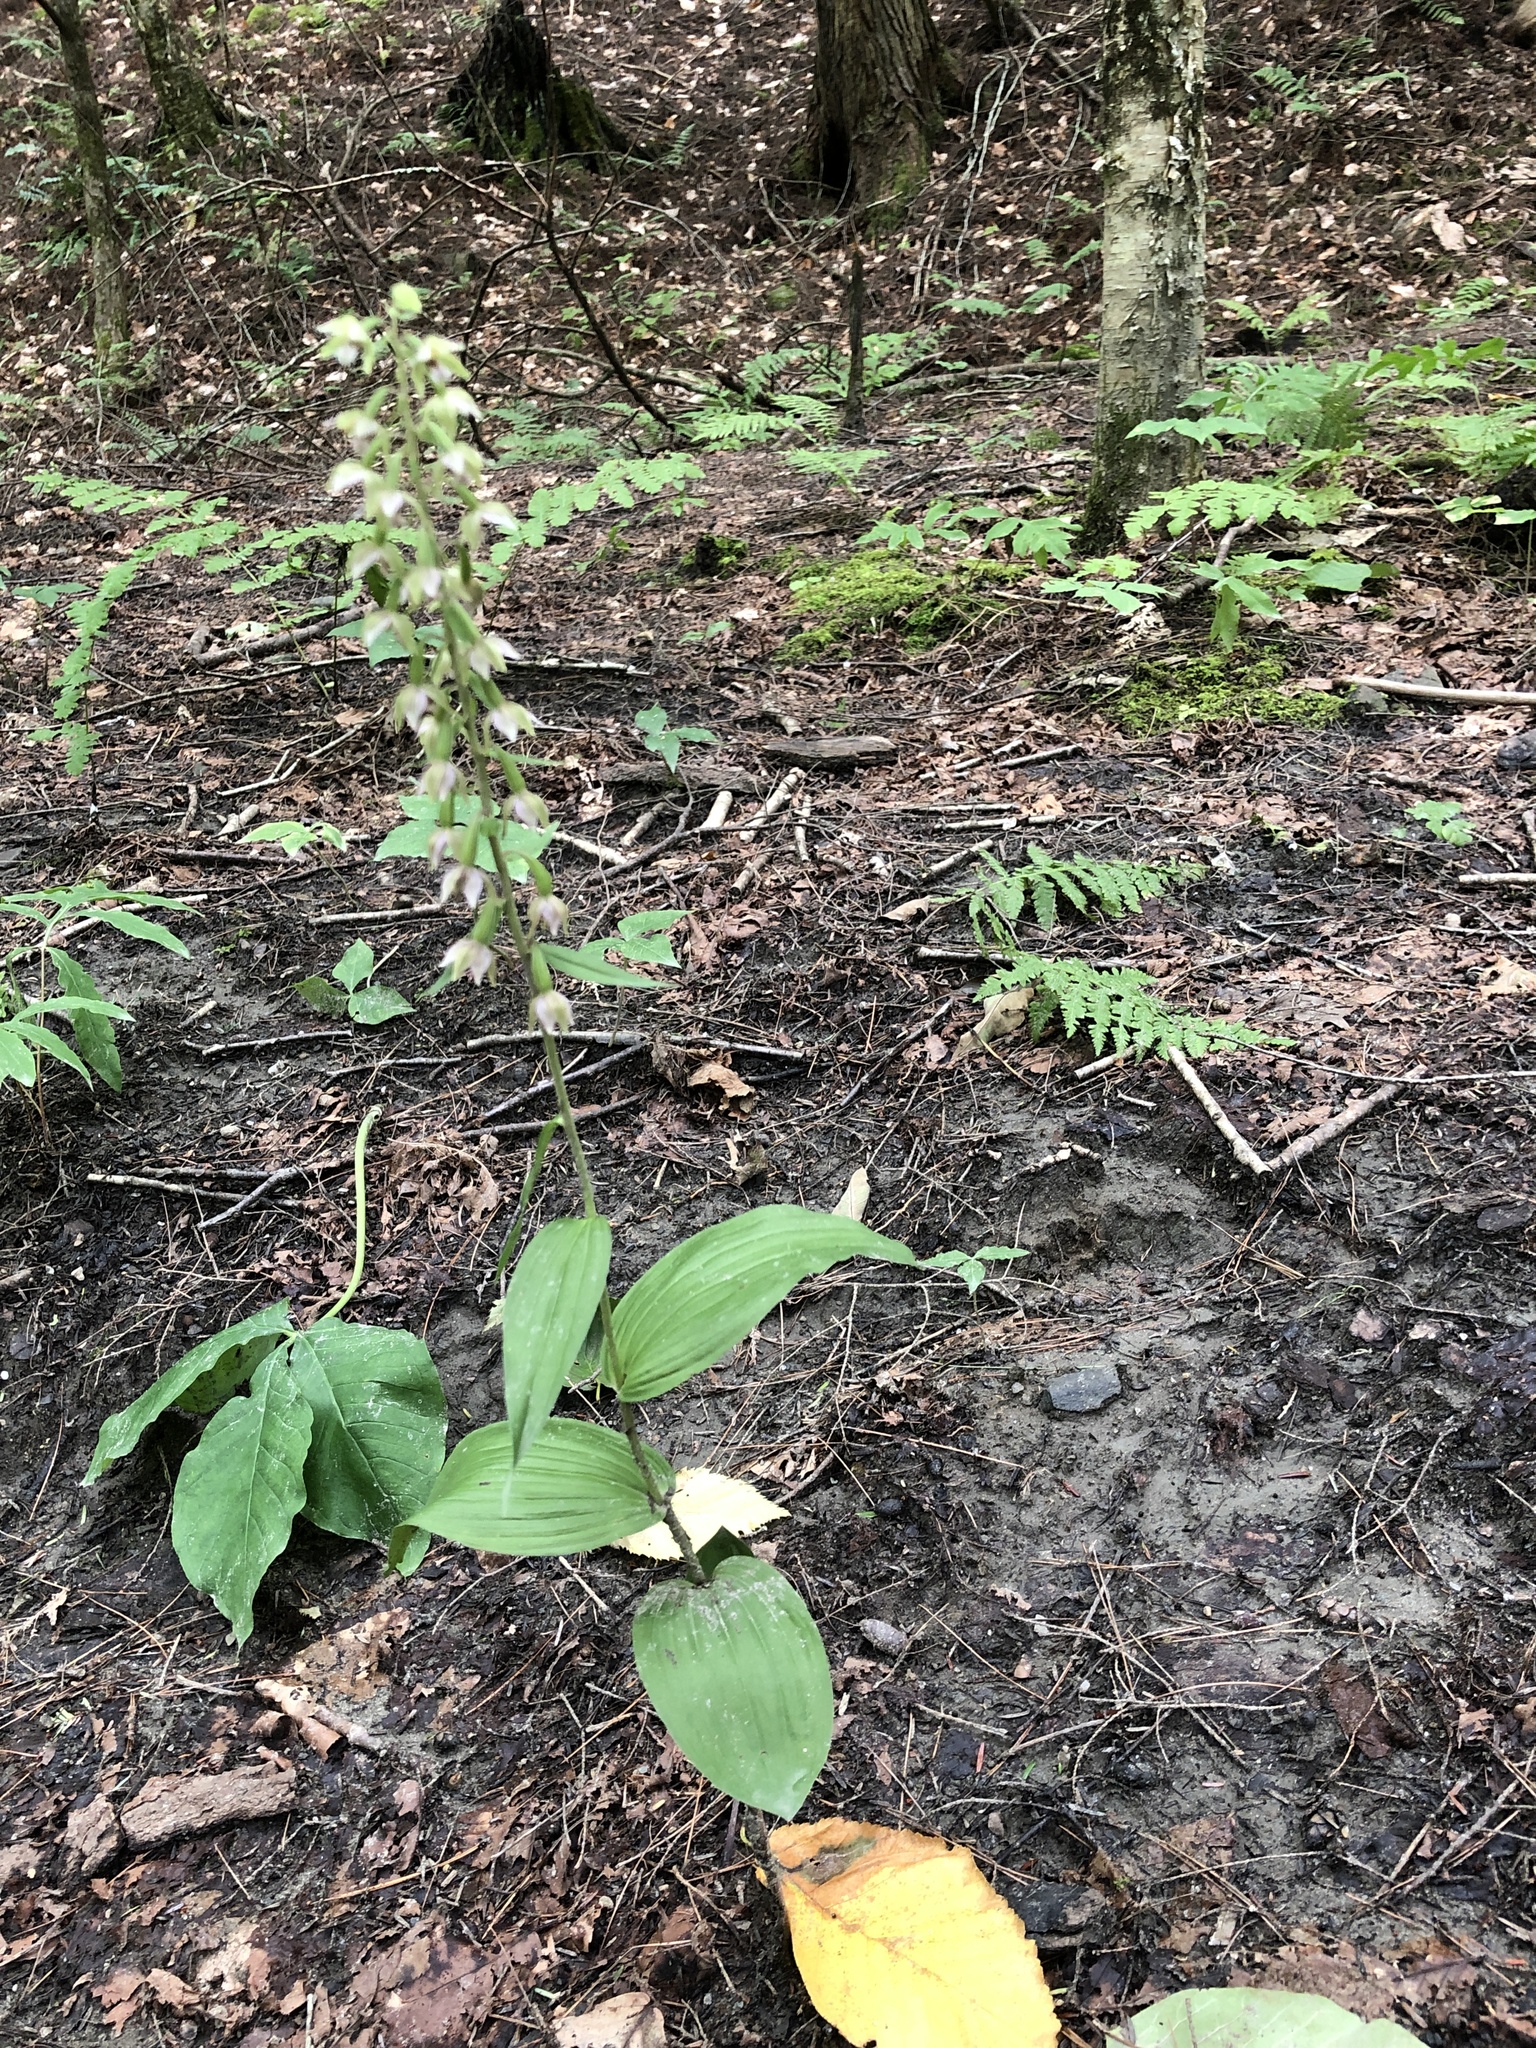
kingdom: Plantae
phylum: Tracheophyta
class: Liliopsida
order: Asparagales
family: Orchidaceae
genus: Epipactis
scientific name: Epipactis helleborine
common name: Broad-leaved helleborine
